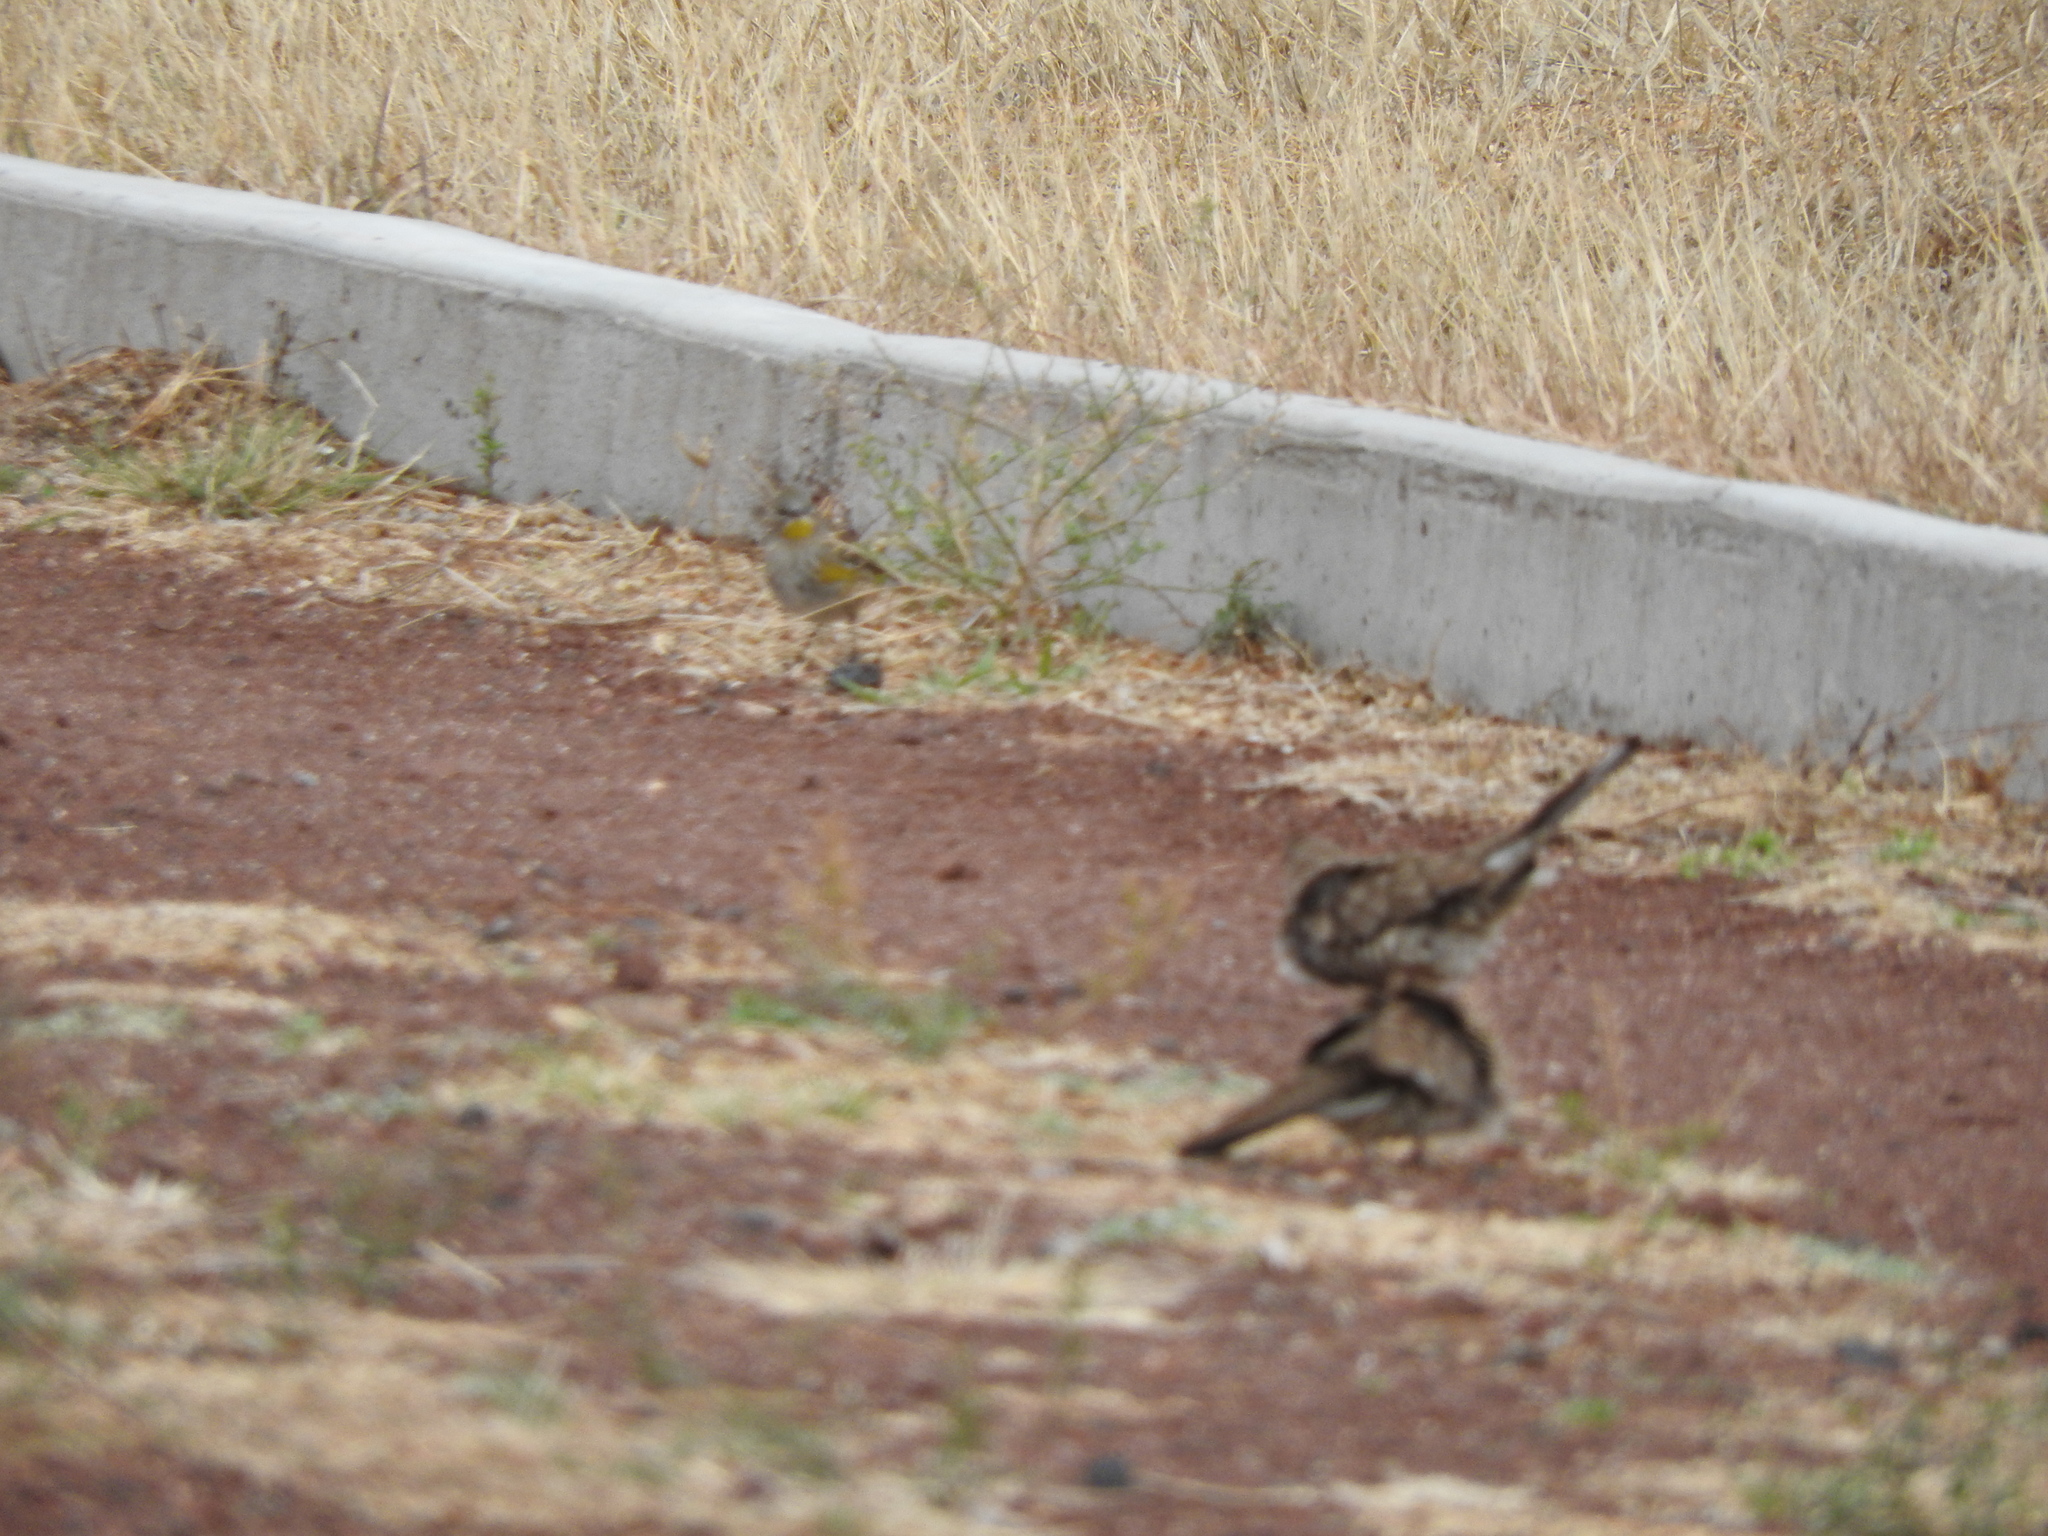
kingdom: Animalia
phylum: Chordata
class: Aves
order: Passeriformes
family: Parulidae
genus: Setophaga
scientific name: Setophaga coronata
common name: Myrtle warbler
